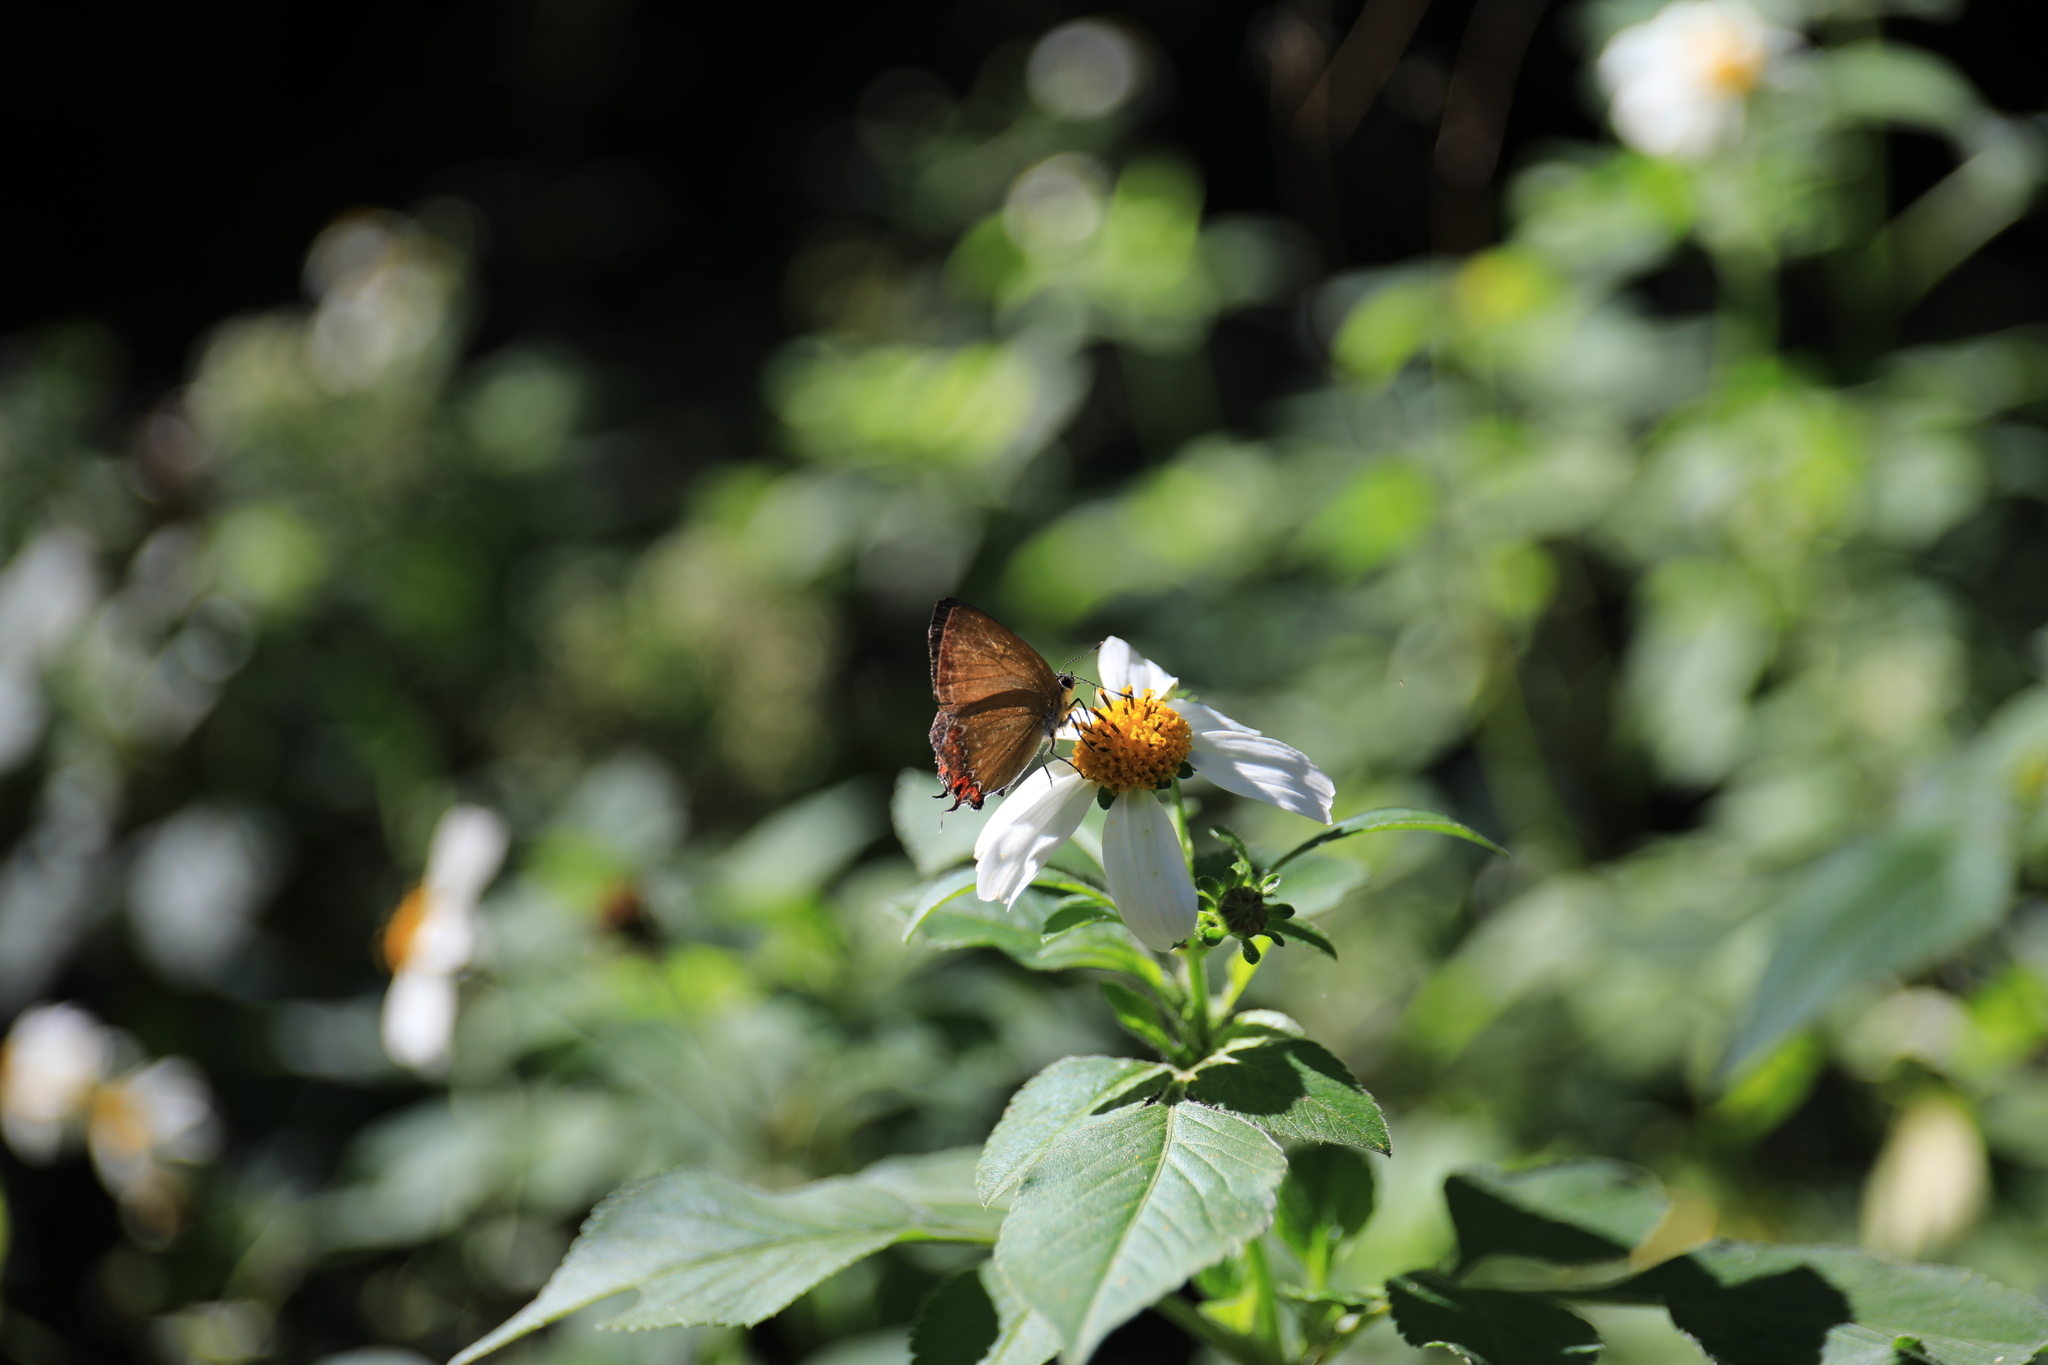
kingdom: Animalia
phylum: Arthropoda
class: Insecta
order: Lepidoptera
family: Lycaenidae
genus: Heliophorus
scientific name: Heliophorus ila
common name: Restricted purple sapphire
